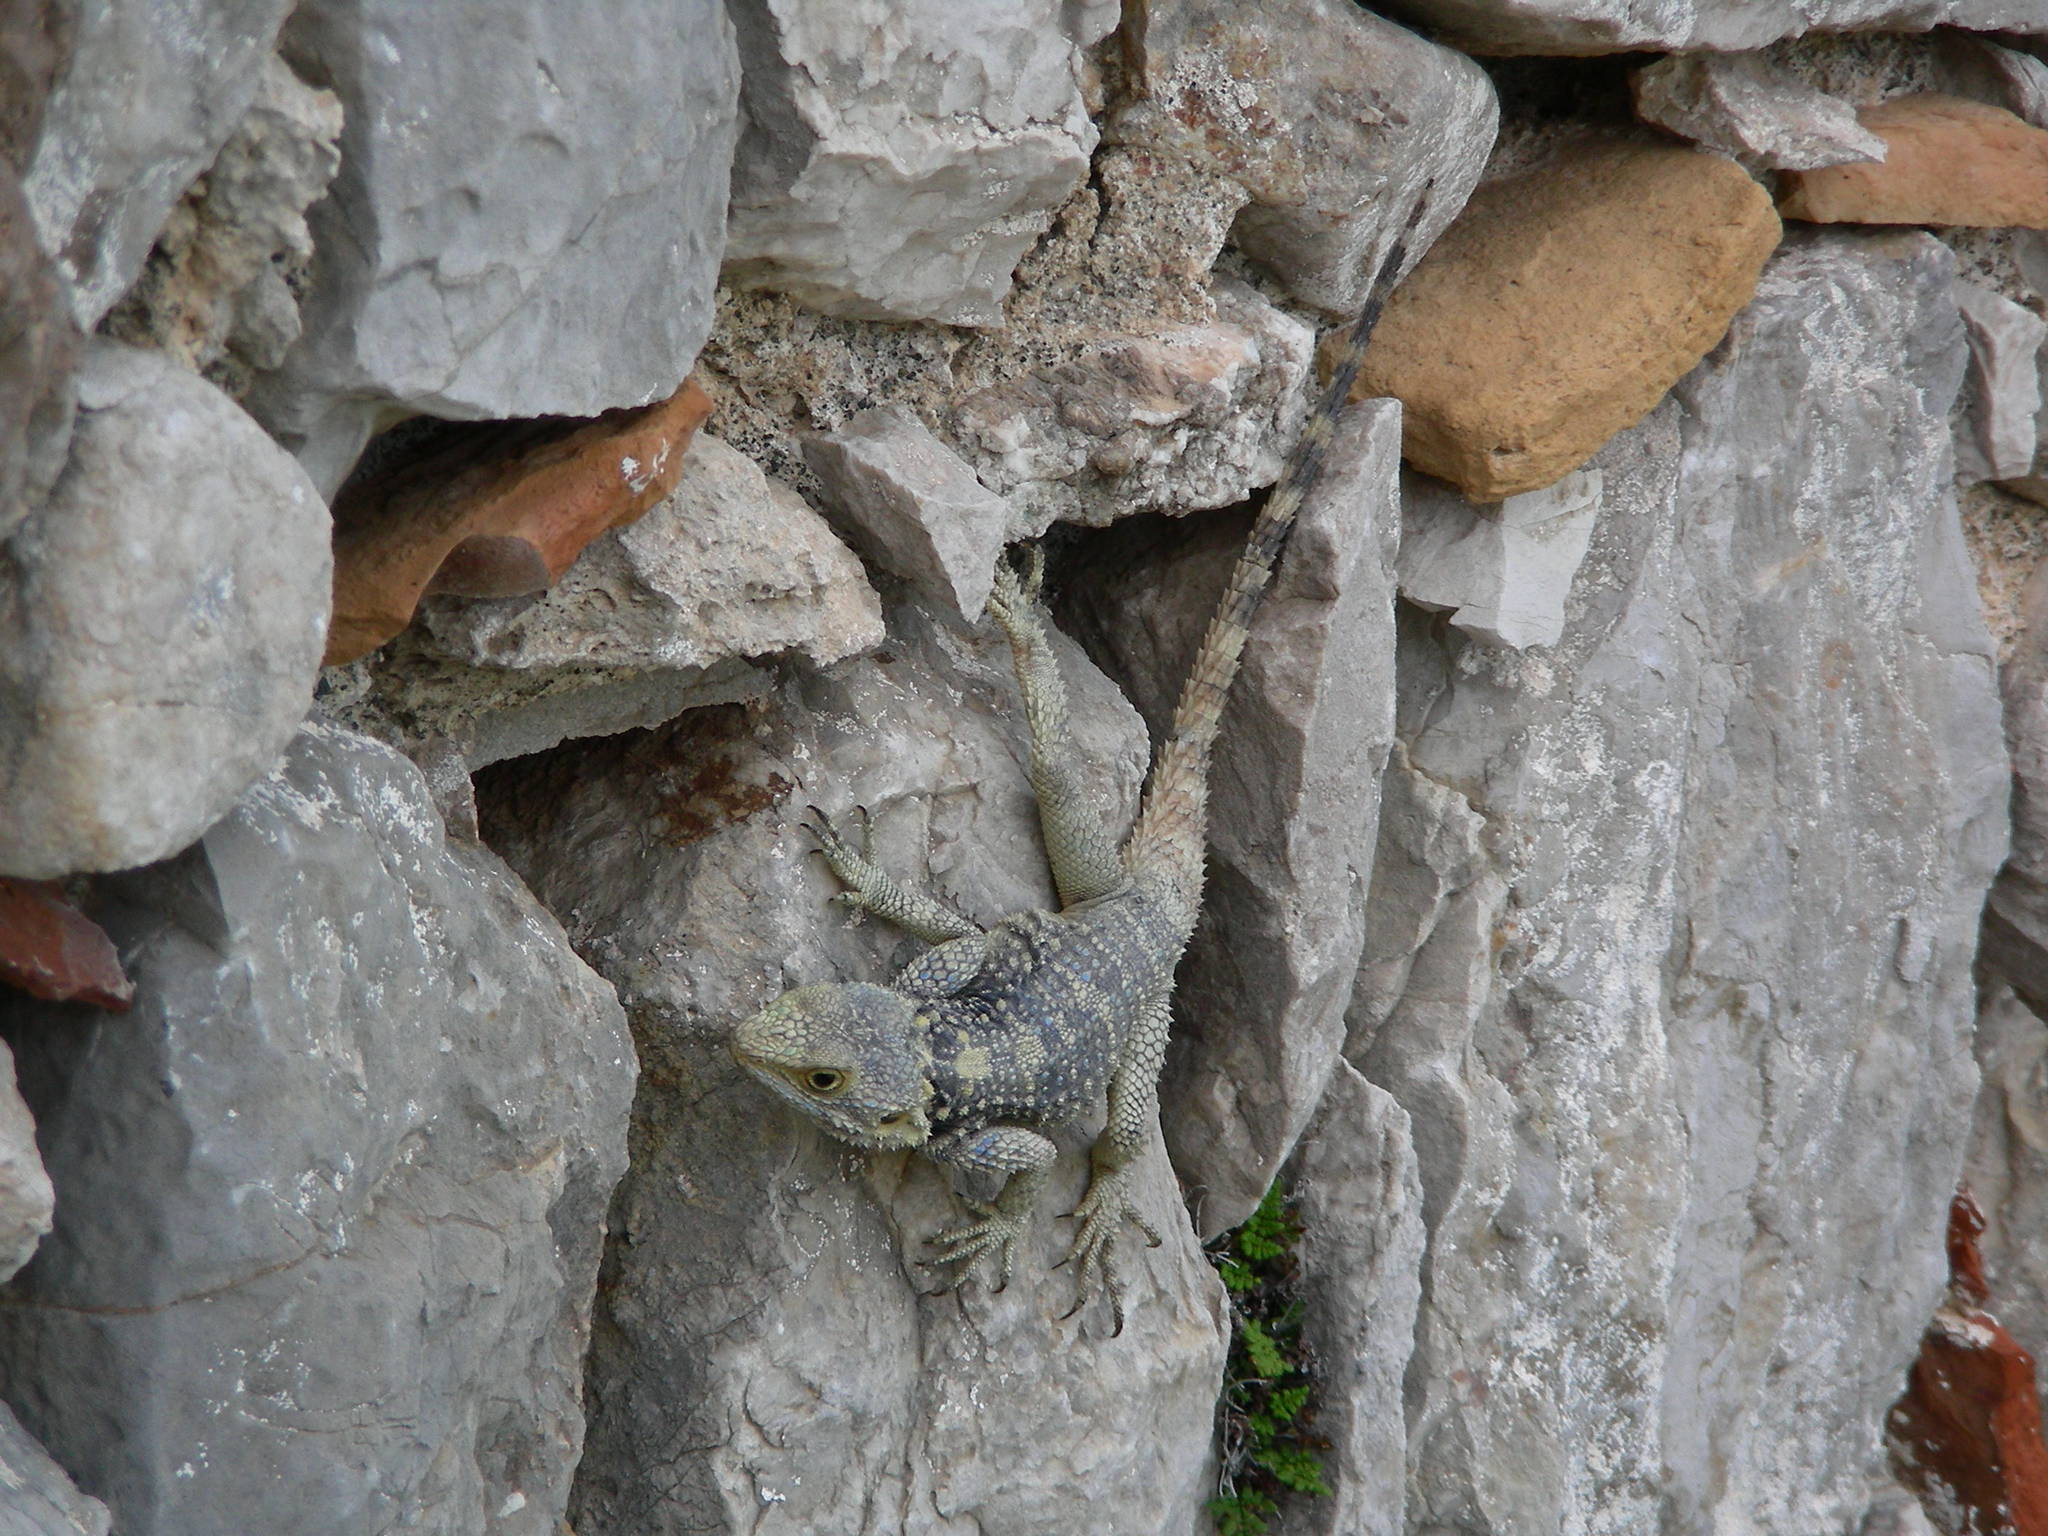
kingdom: Animalia
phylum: Chordata
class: Squamata
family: Agamidae
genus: Stellagama
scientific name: Stellagama stellio
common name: Starred agama
